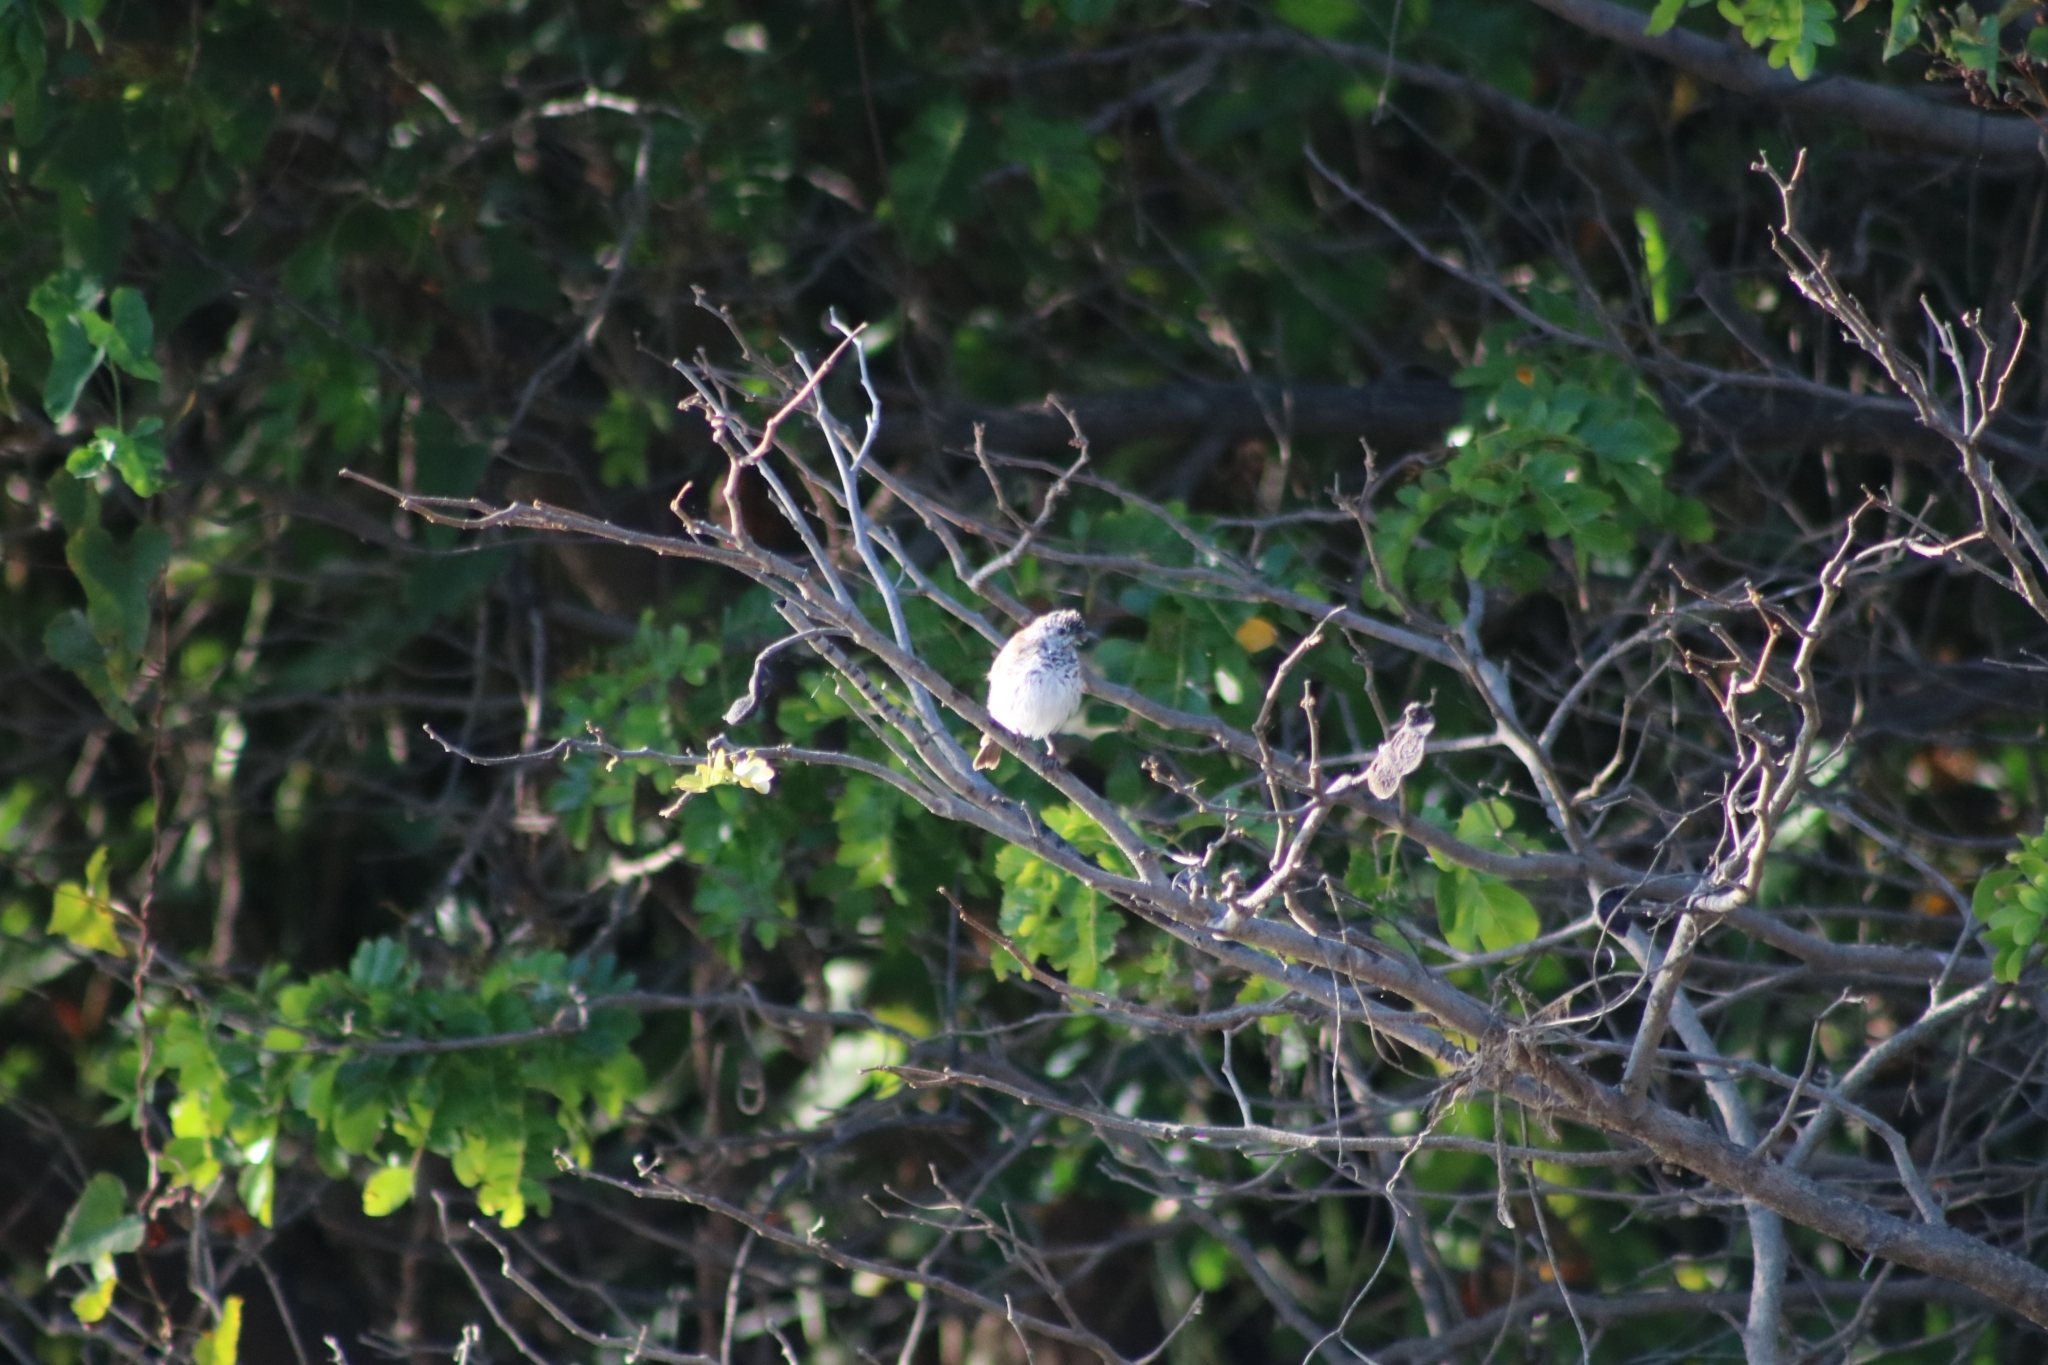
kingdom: Animalia
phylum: Chordata
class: Aves
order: Passeriformes
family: Meliphagidae
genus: Ramsayornis
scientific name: Ramsayornis fasciatus
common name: Bar-breasted honeyeater
